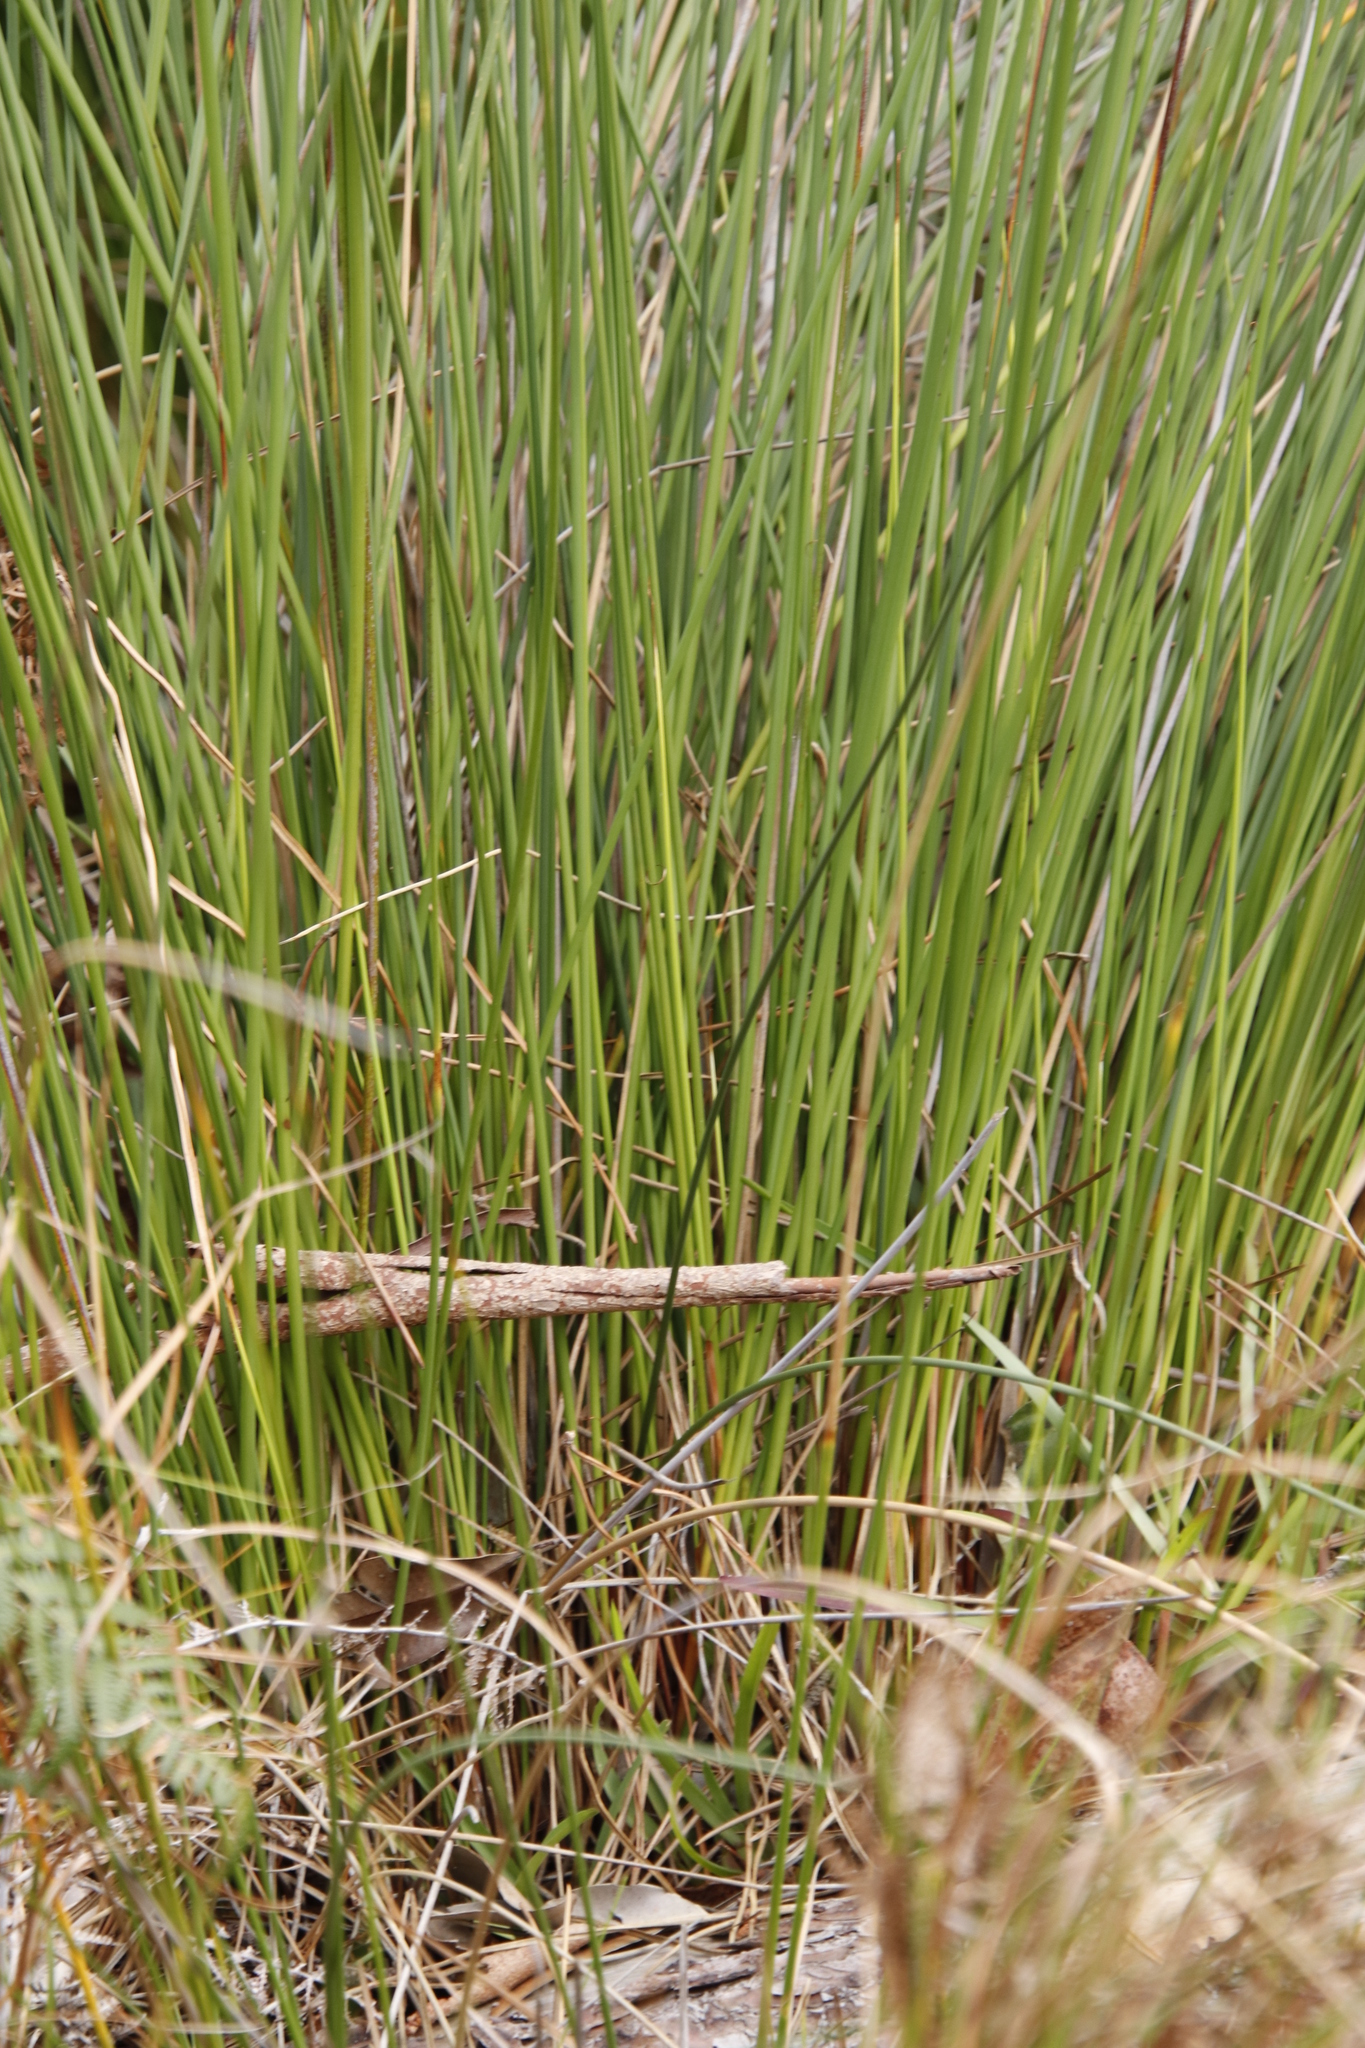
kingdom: Plantae
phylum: Tracheophyta
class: Liliopsida
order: Poales
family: Cyperaceae
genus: Neesenbeckia
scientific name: Neesenbeckia punctoria
